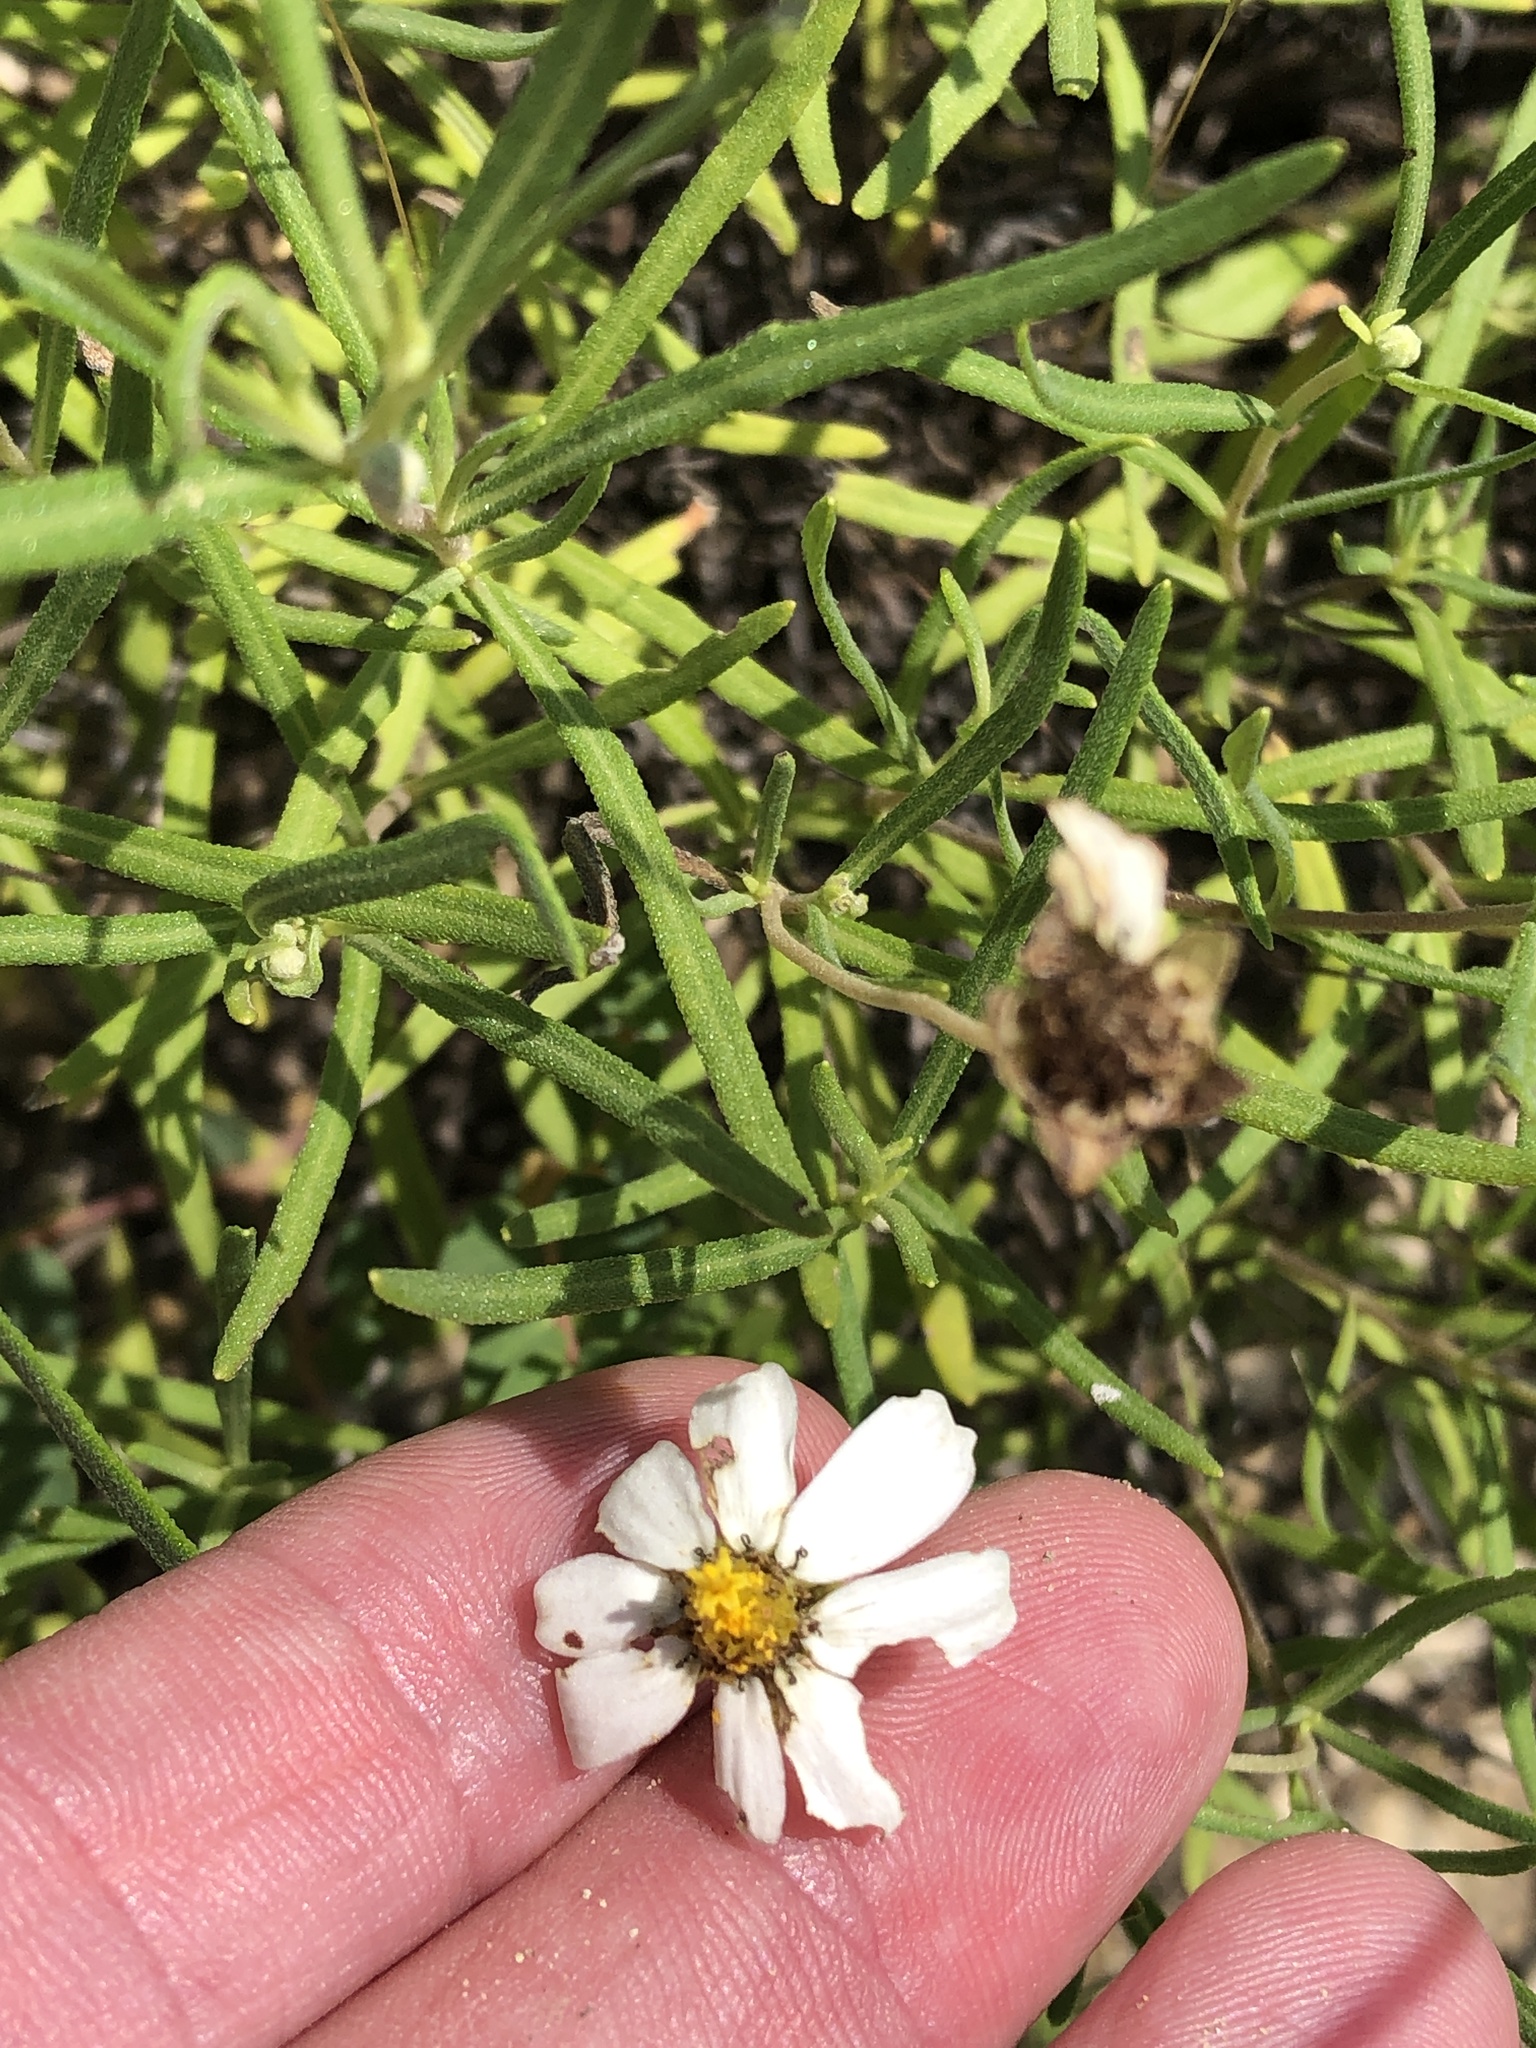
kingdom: Plantae
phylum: Tracheophyta
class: Magnoliopsida
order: Asterales
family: Asteraceae
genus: Melampodium
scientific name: Melampodium leucanthum
